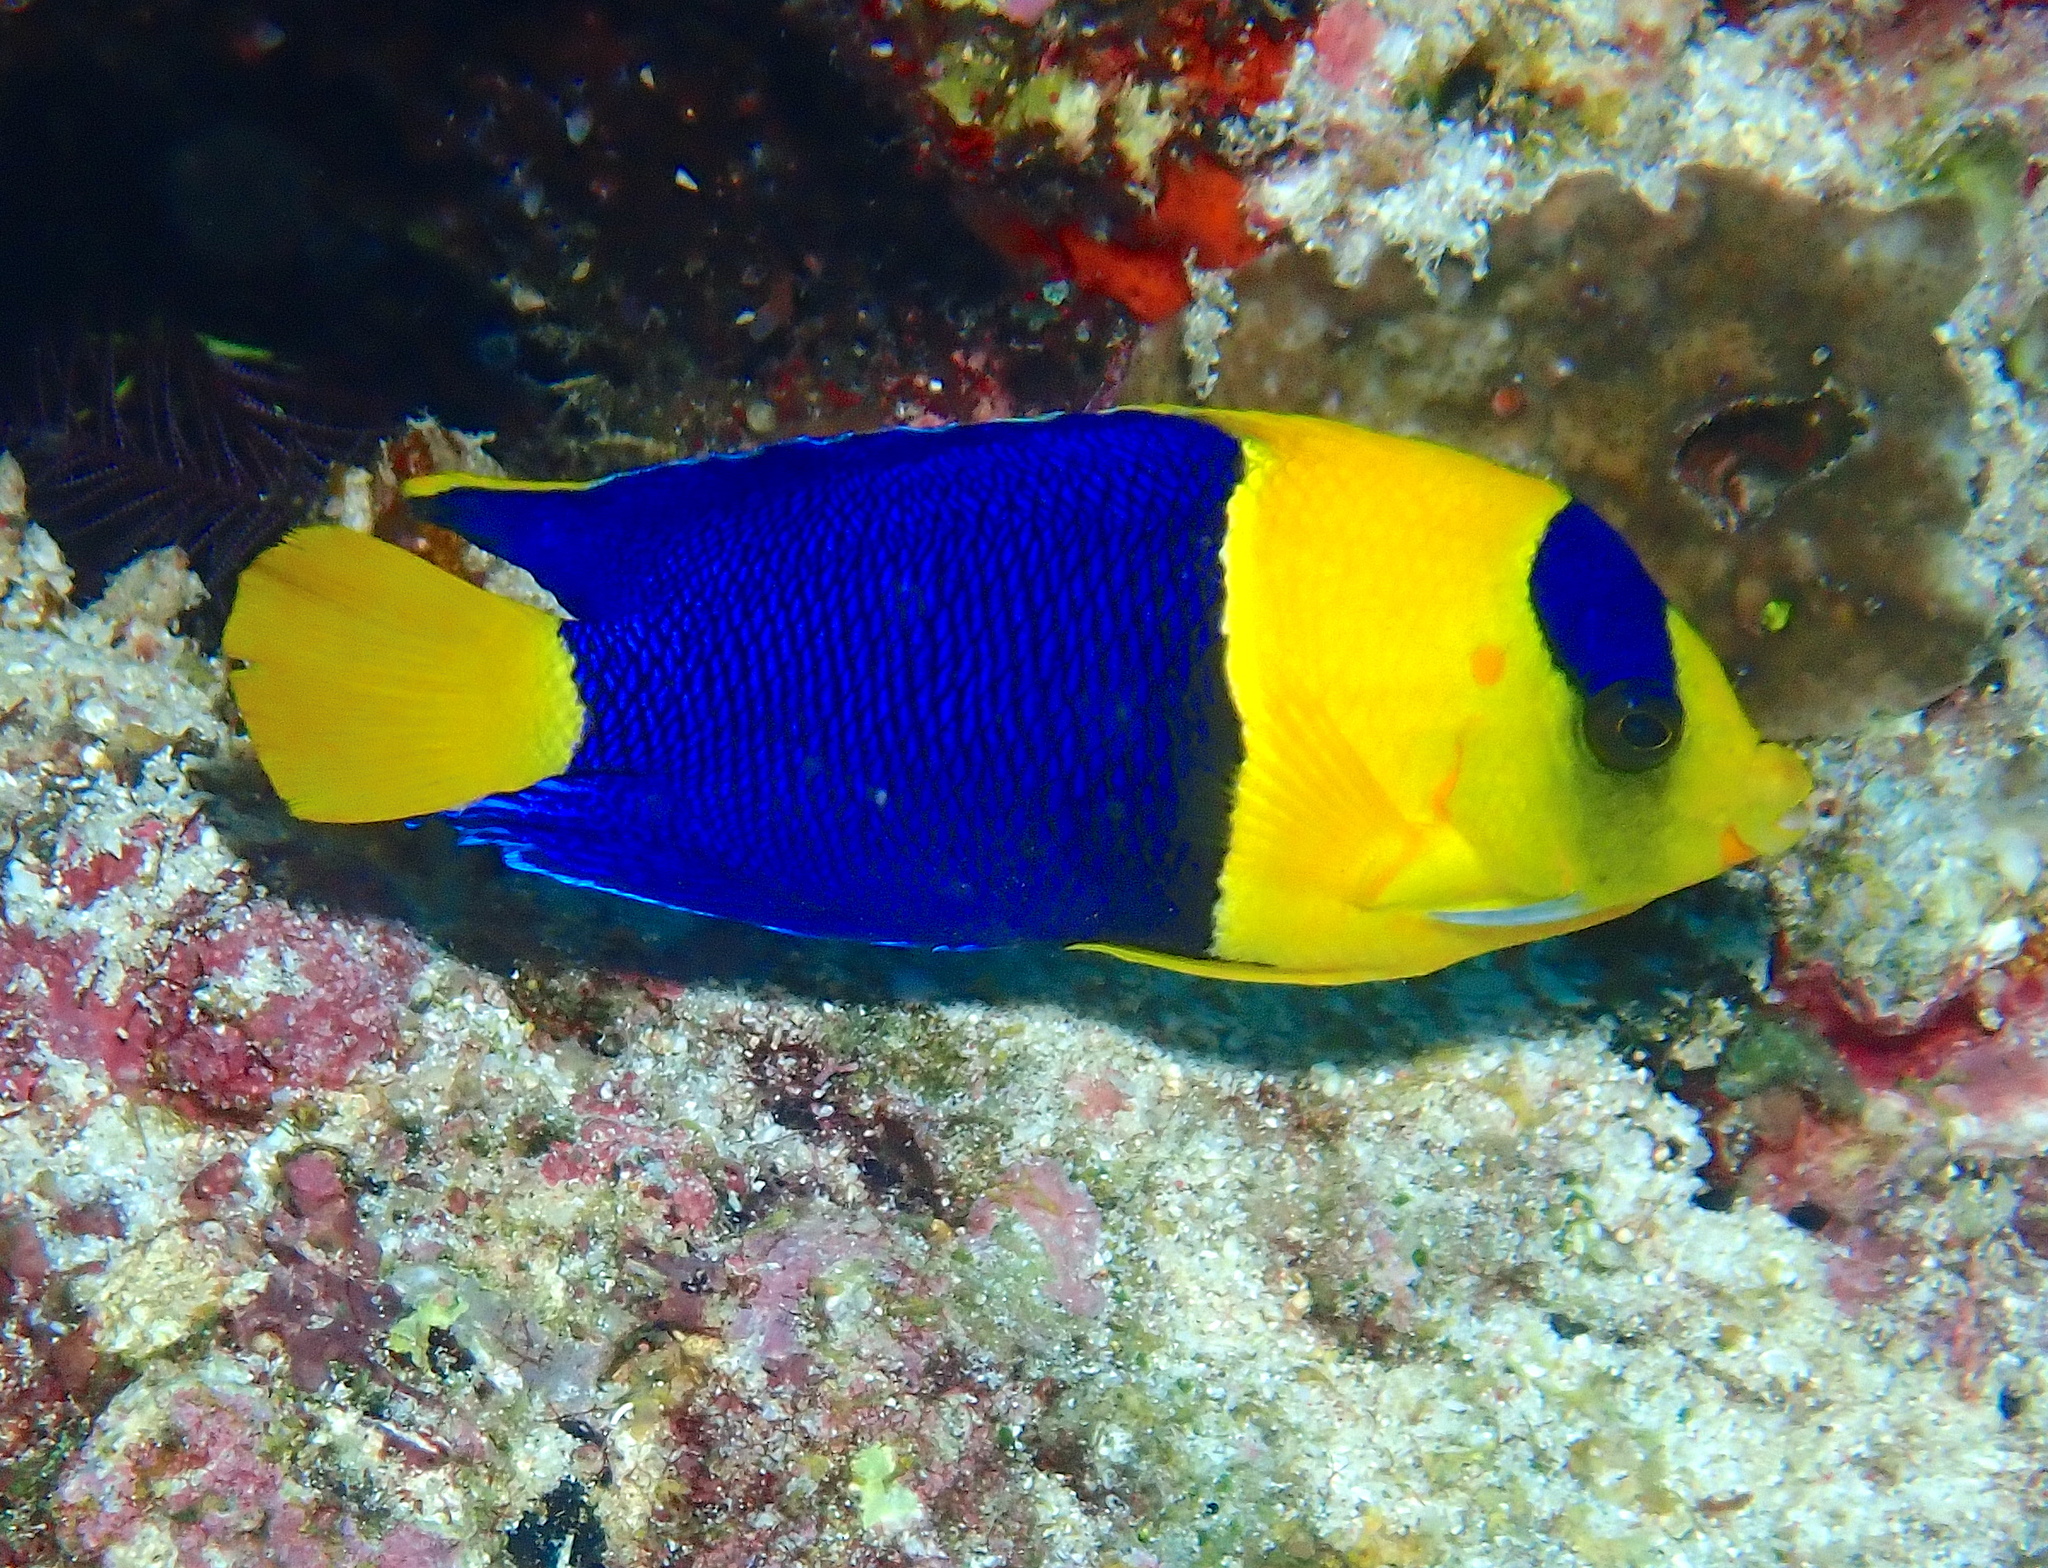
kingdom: Animalia
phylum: Chordata
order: Perciformes
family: Pomacanthidae
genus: Centropyge
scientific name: Centropyge bicolor
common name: Bicolor angelfish
